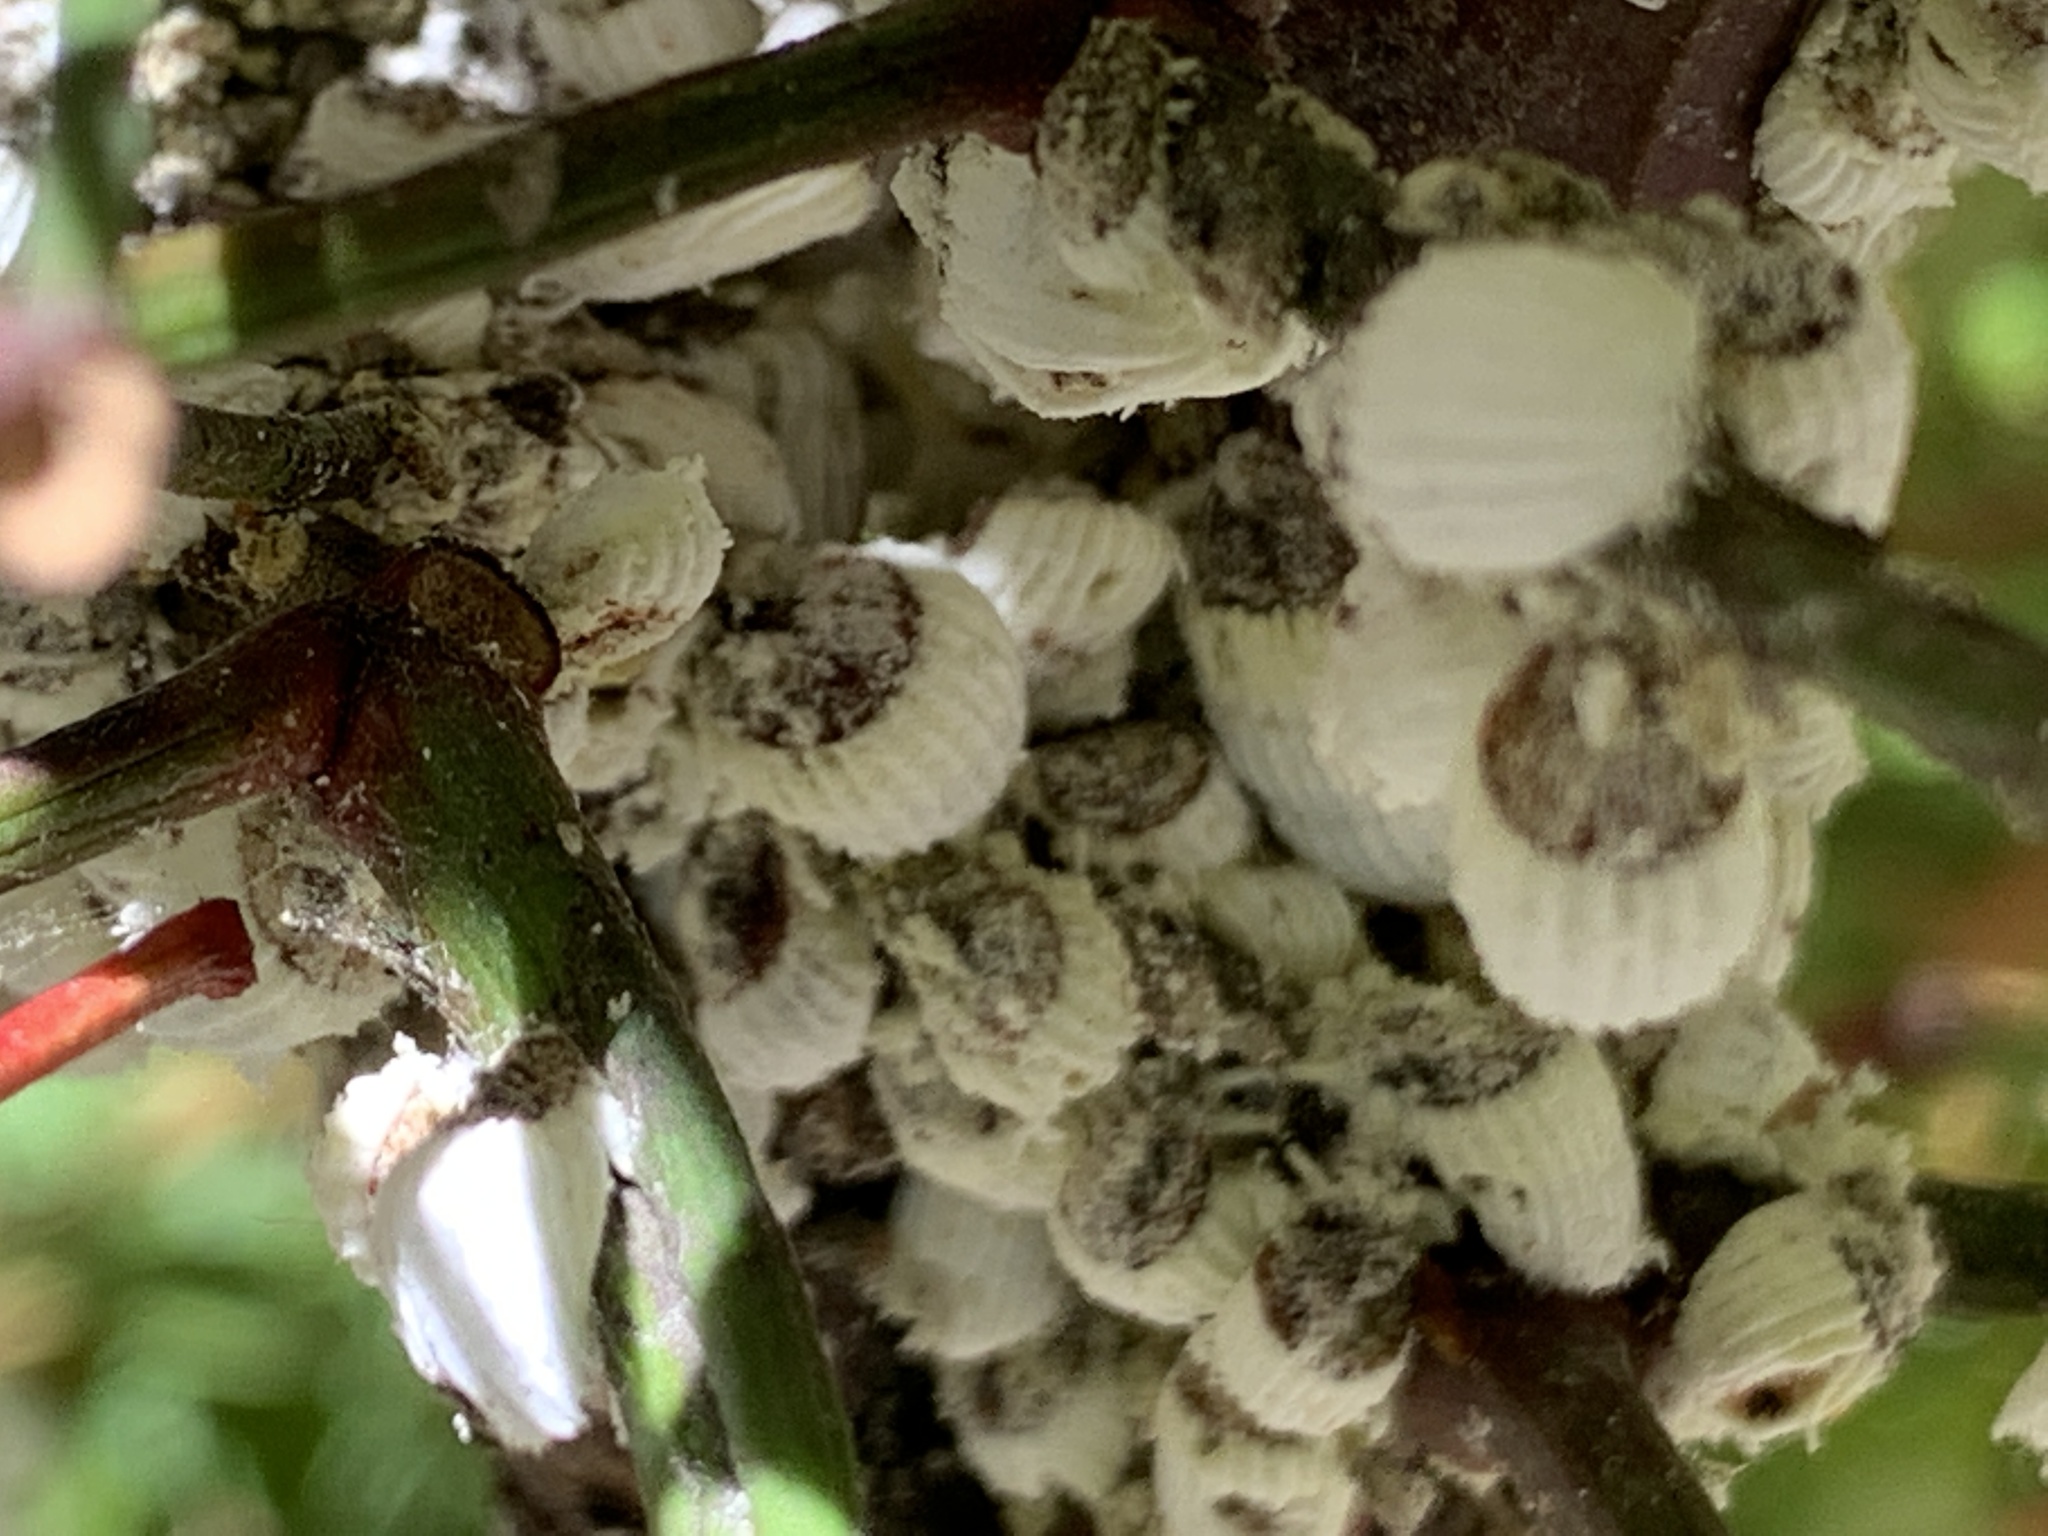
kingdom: Animalia
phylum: Arthropoda
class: Insecta
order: Hemiptera
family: Margarodidae
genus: Icerya
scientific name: Icerya purchasi
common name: Cottony cushion scale
